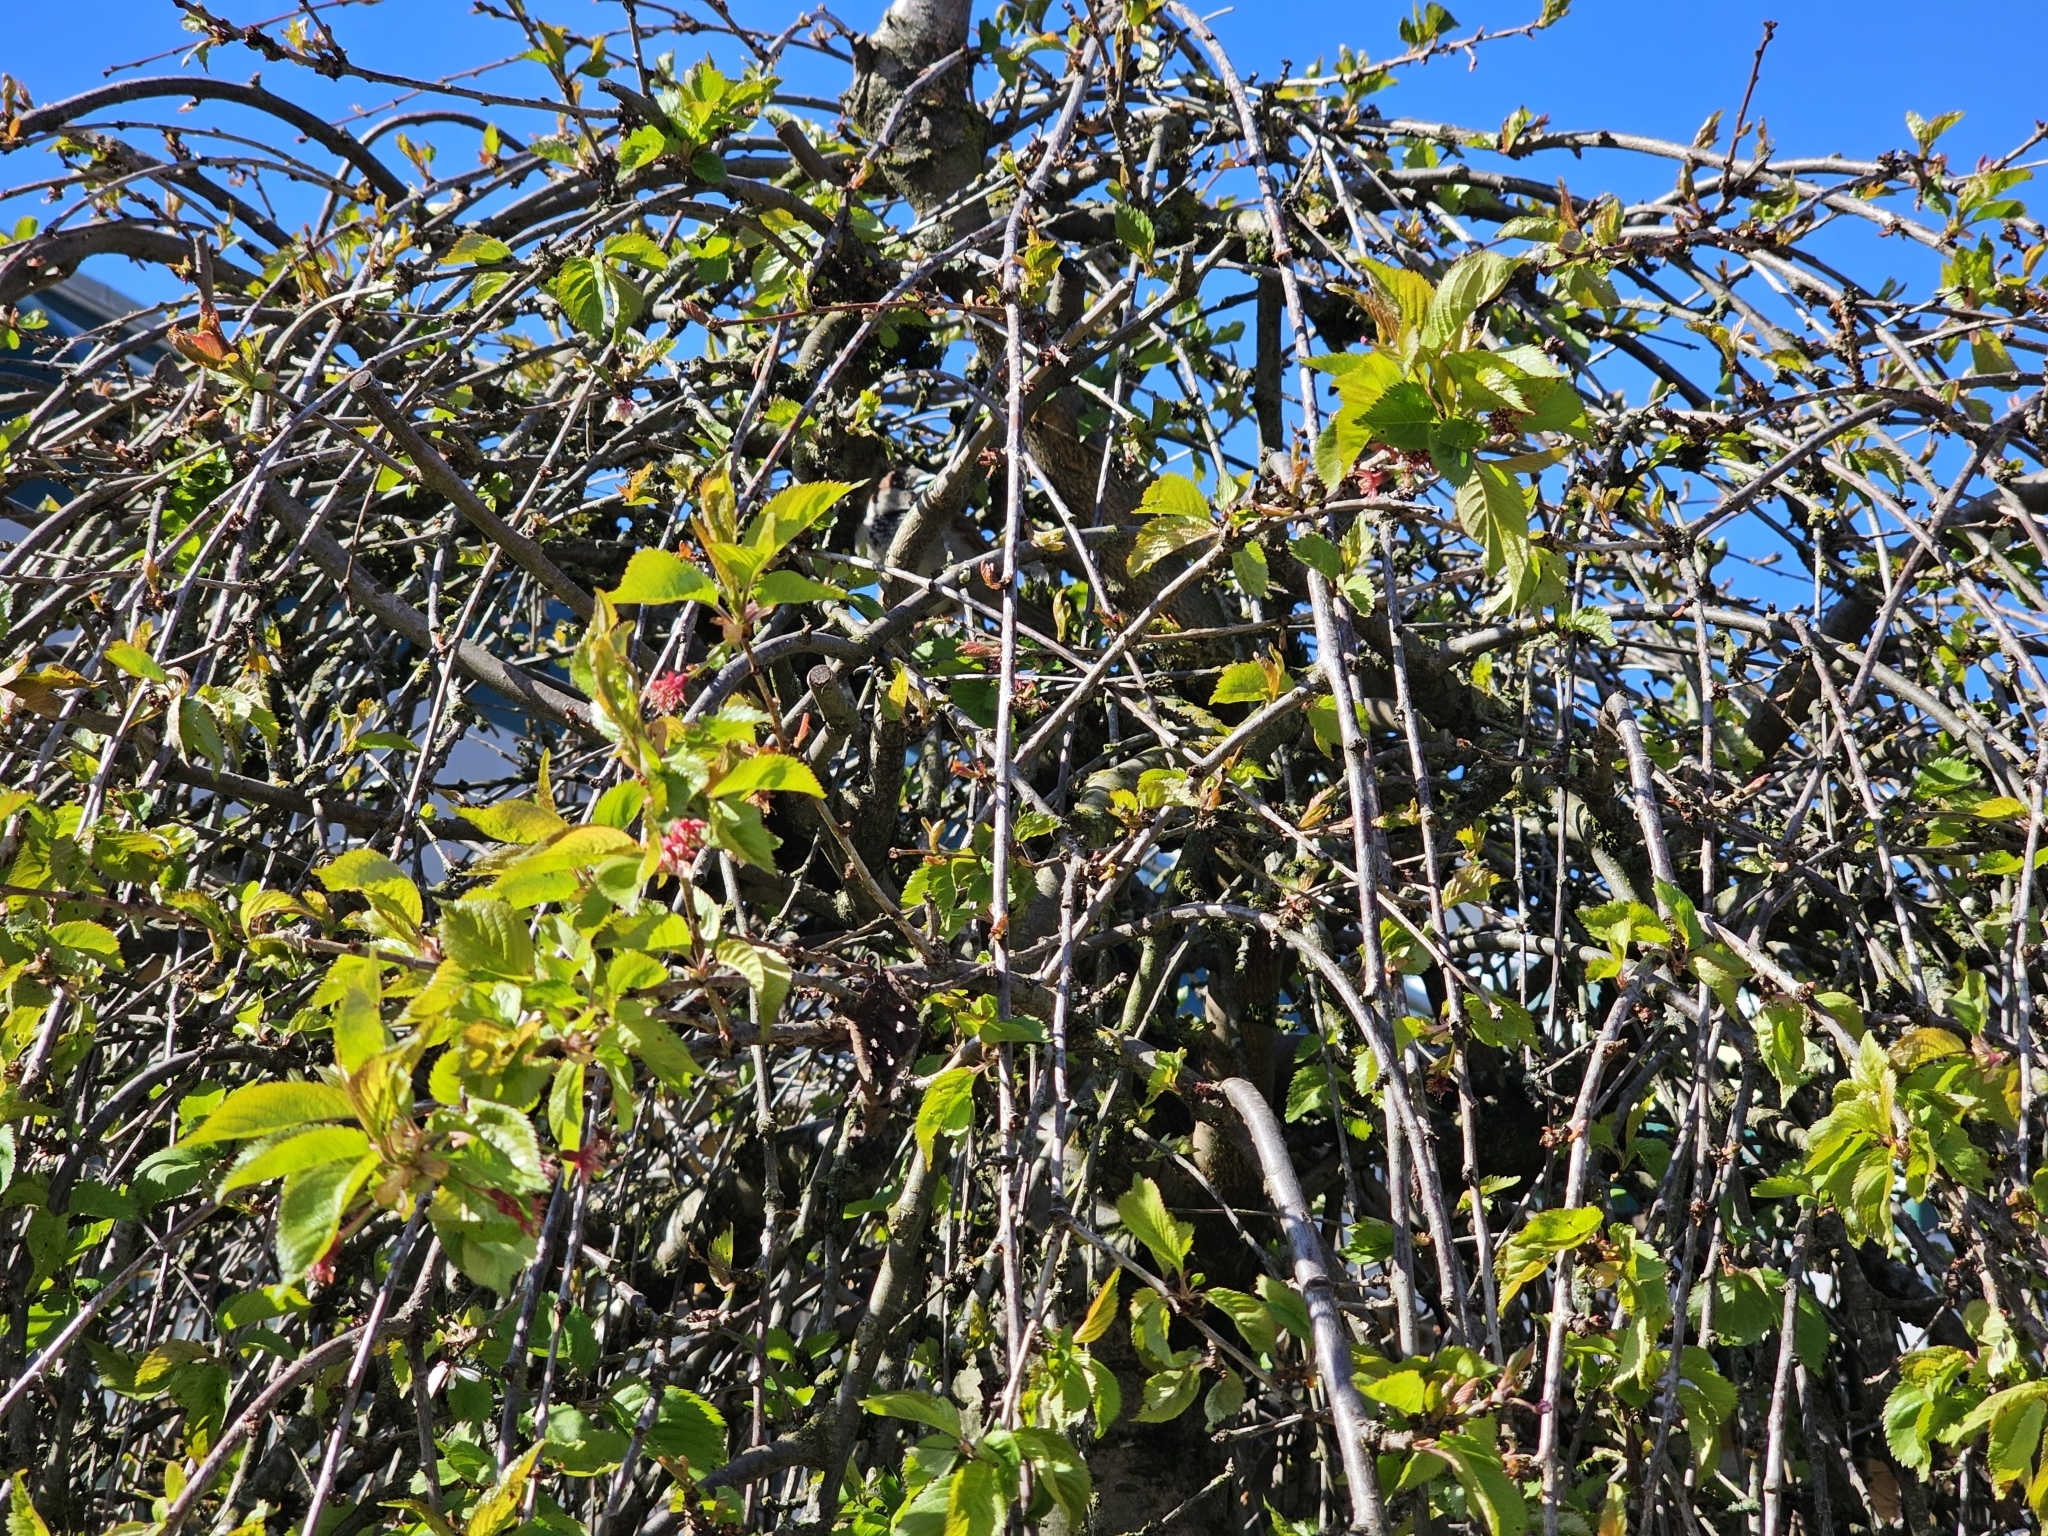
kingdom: Animalia
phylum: Chordata
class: Aves
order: Passeriformes
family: Passeridae
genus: Passer
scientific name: Passer domesticus
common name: House sparrow
